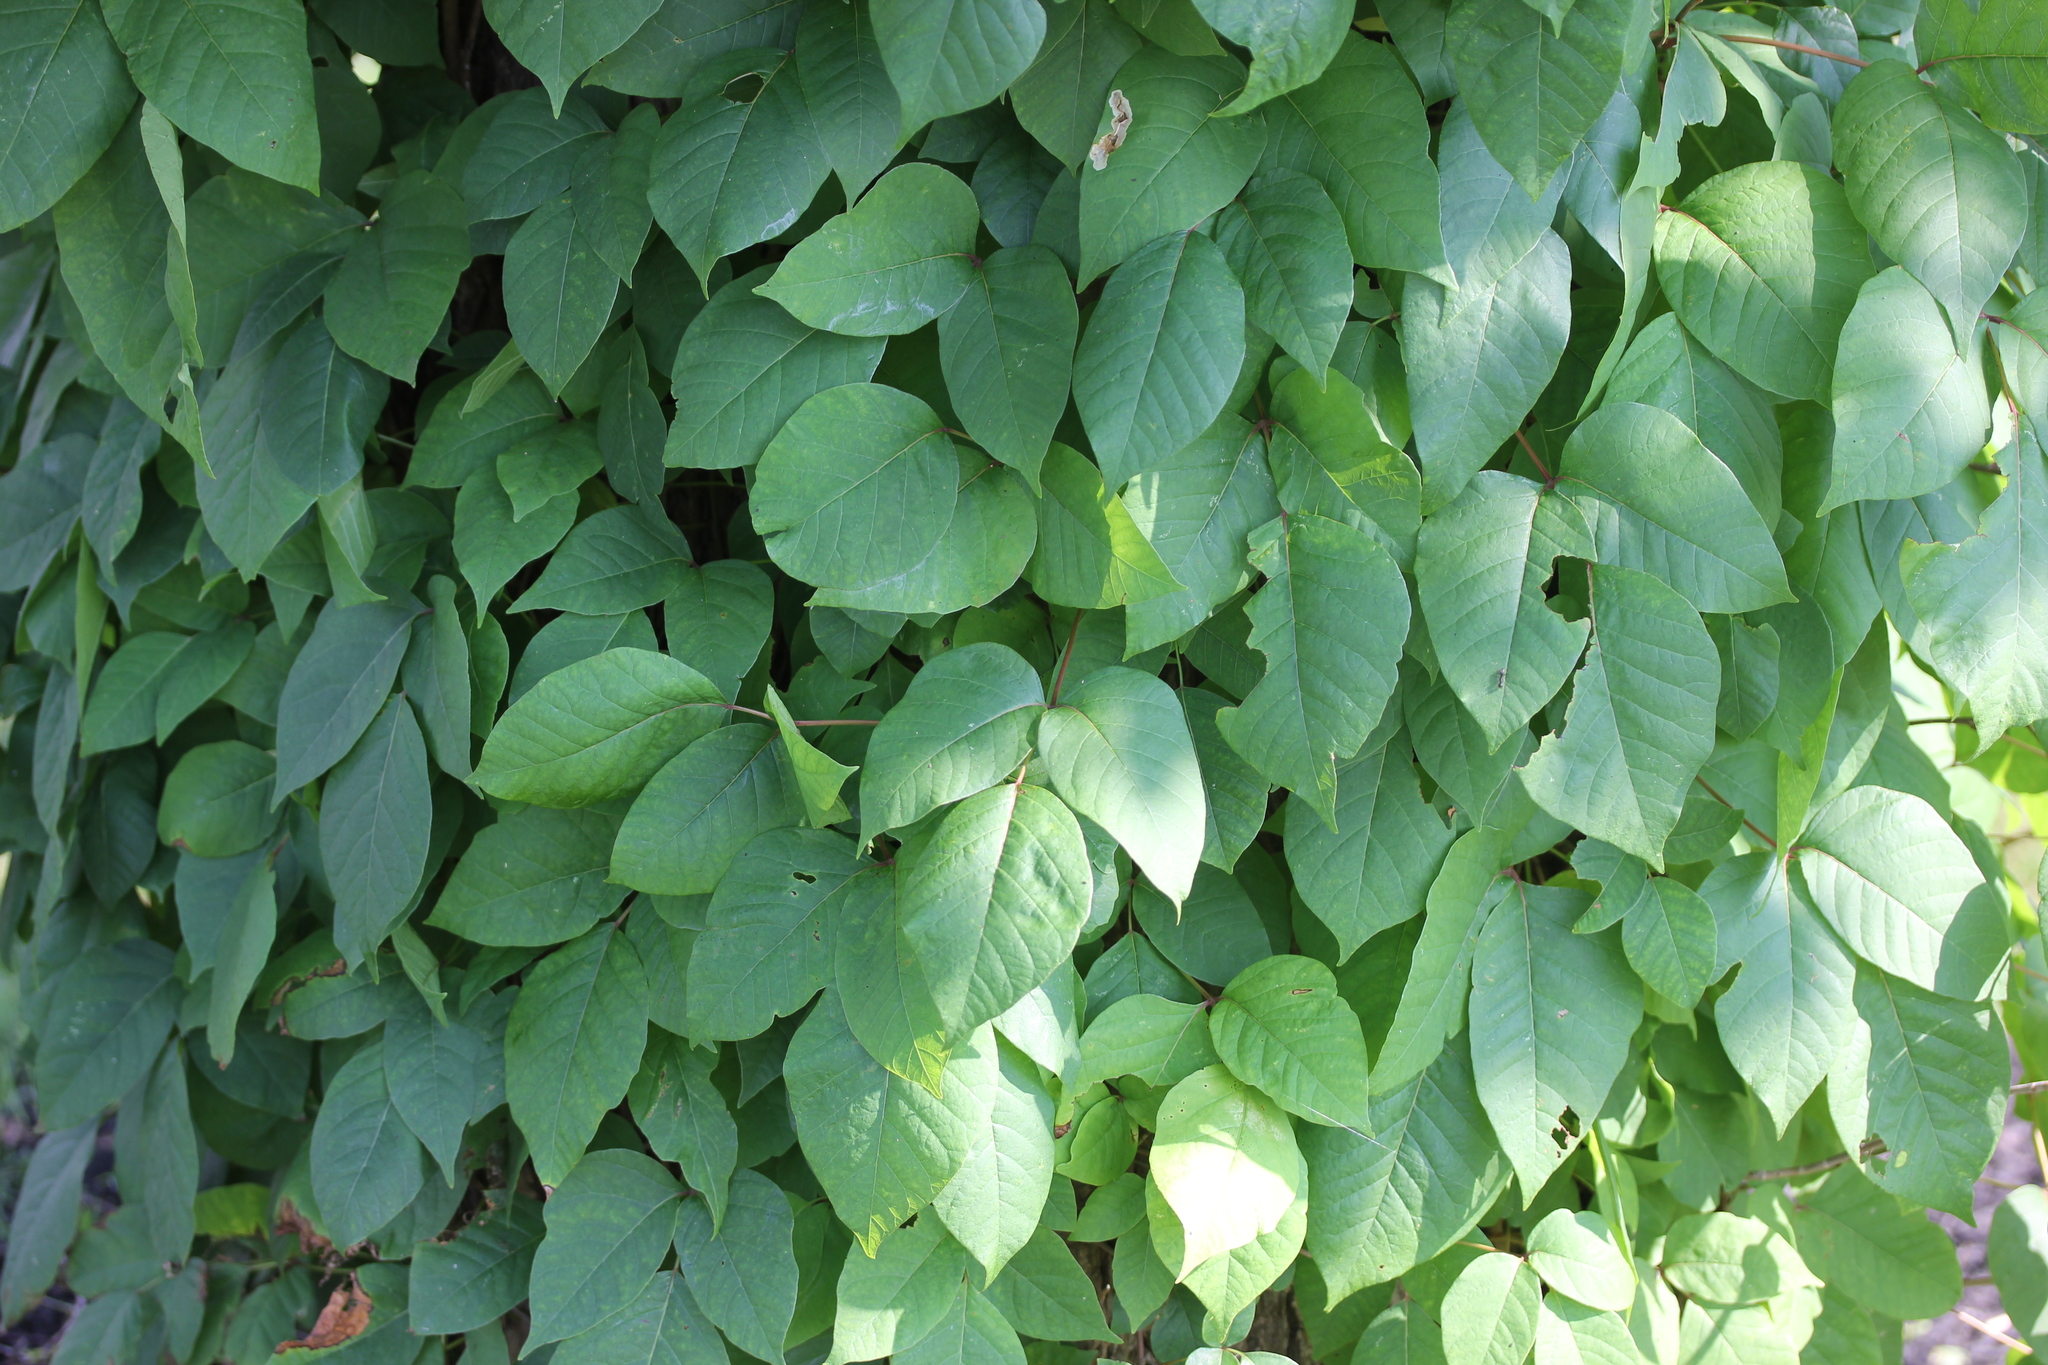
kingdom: Plantae
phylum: Tracheophyta
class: Magnoliopsida
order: Sapindales
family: Anacardiaceae
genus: Toxicodendron
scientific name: Toxicodendron radicans
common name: Poison ivy
